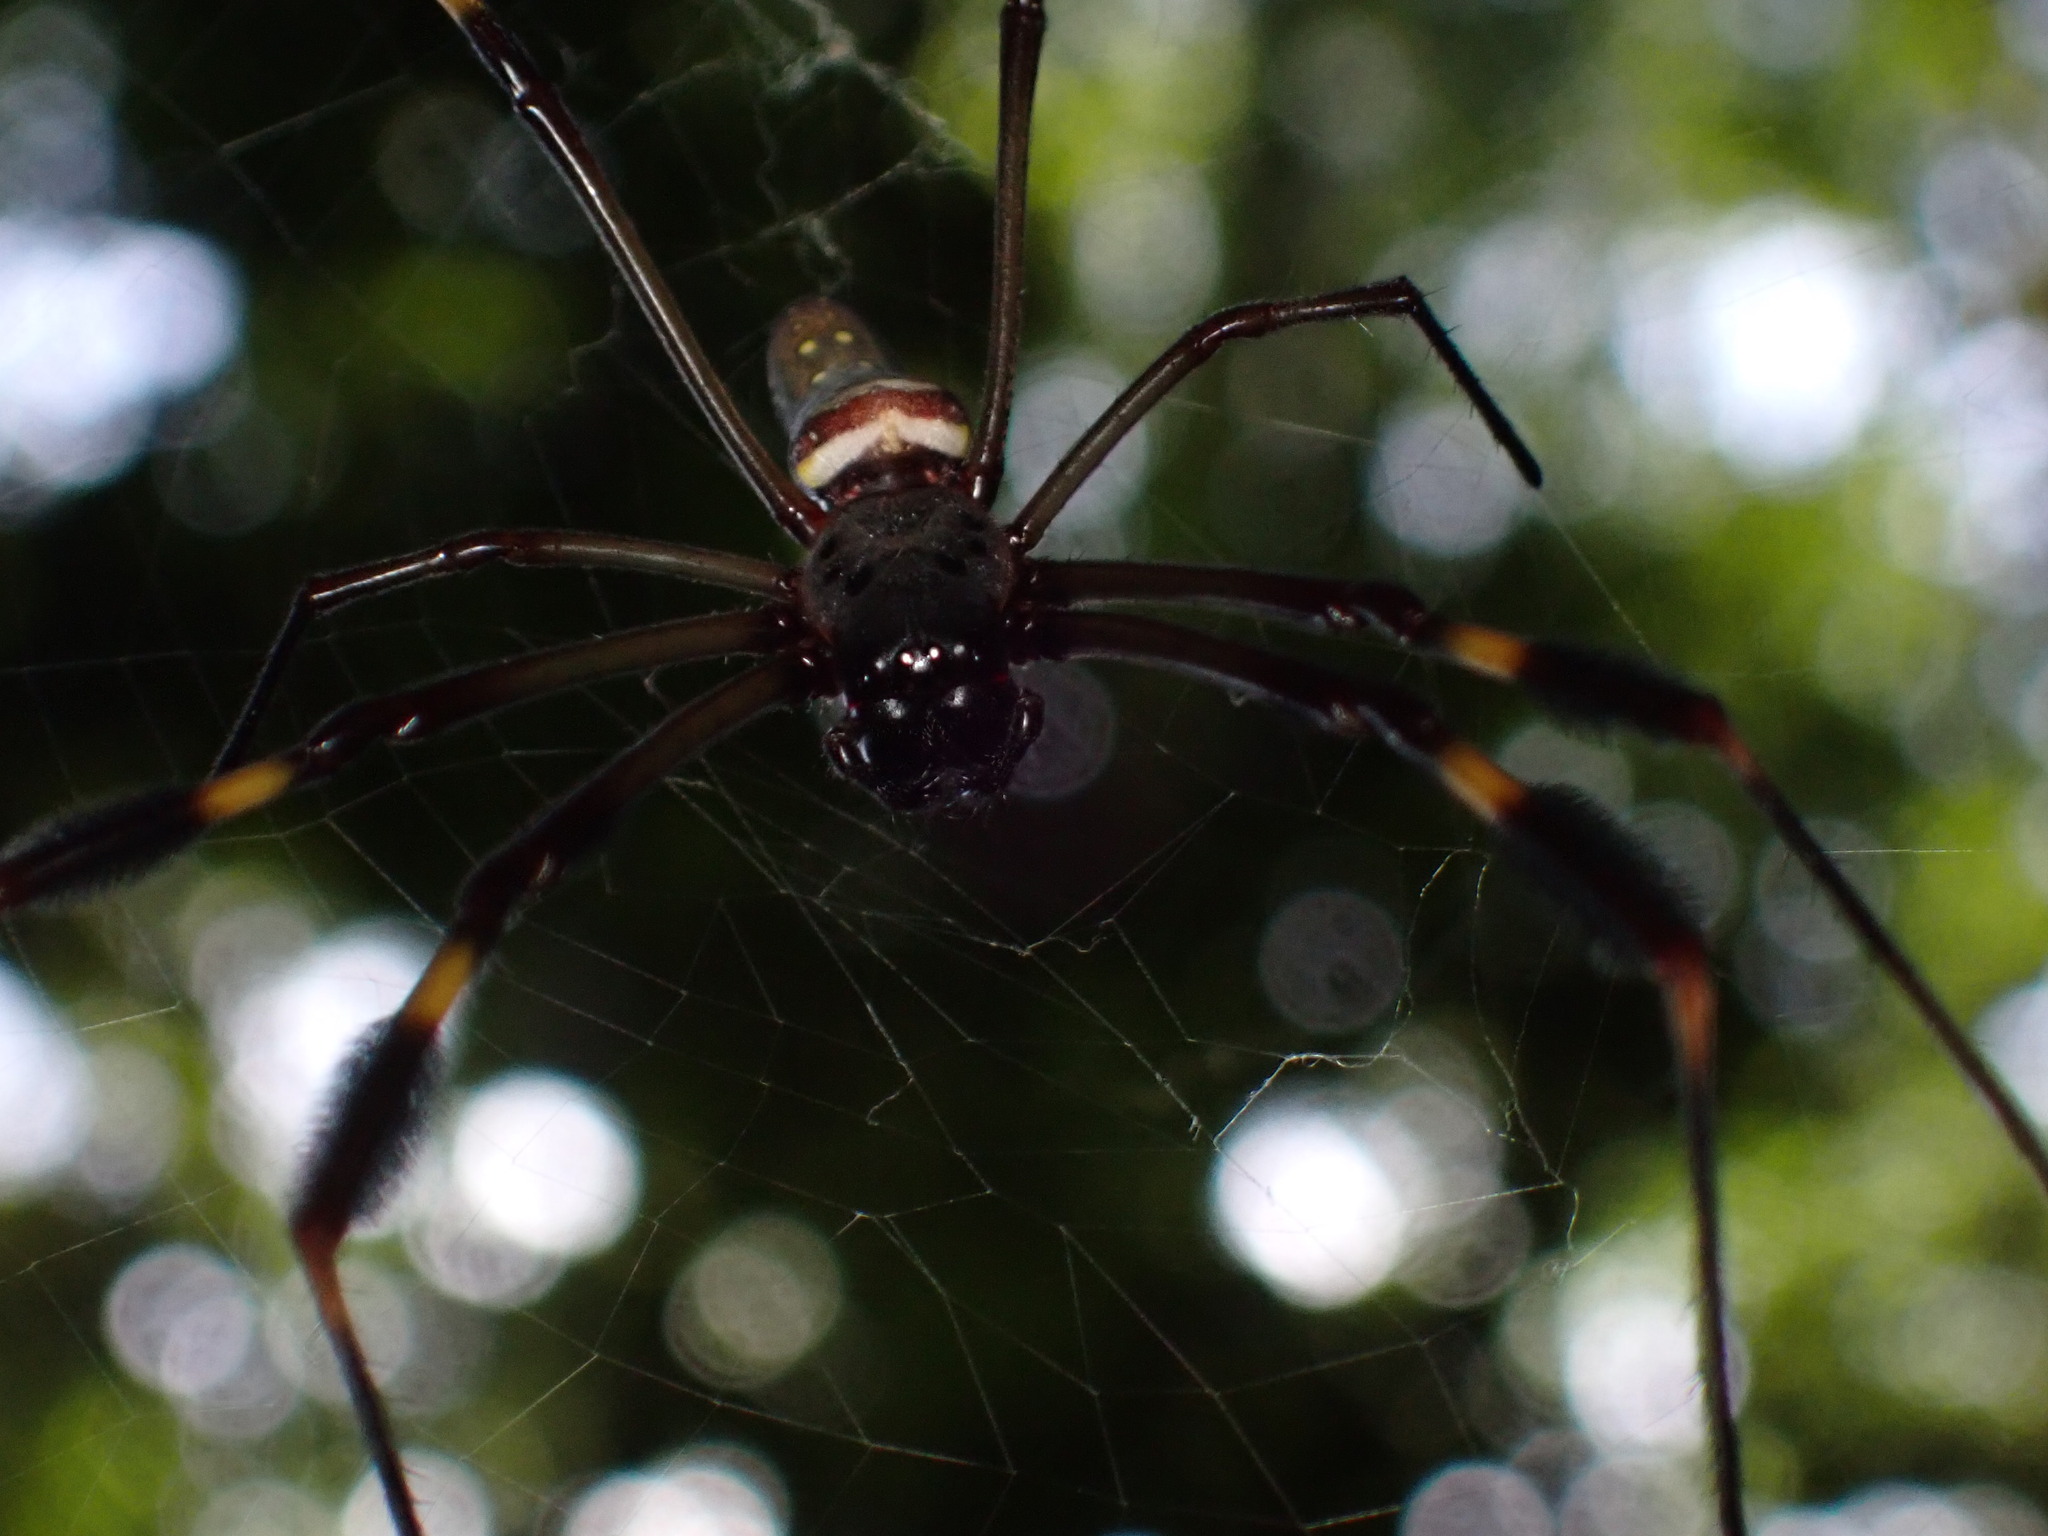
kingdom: Animalia
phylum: Arthropoda
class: Arachnida
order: Araneae
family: Araneidae
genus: Trichonephila
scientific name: Trichonephila clavipes
